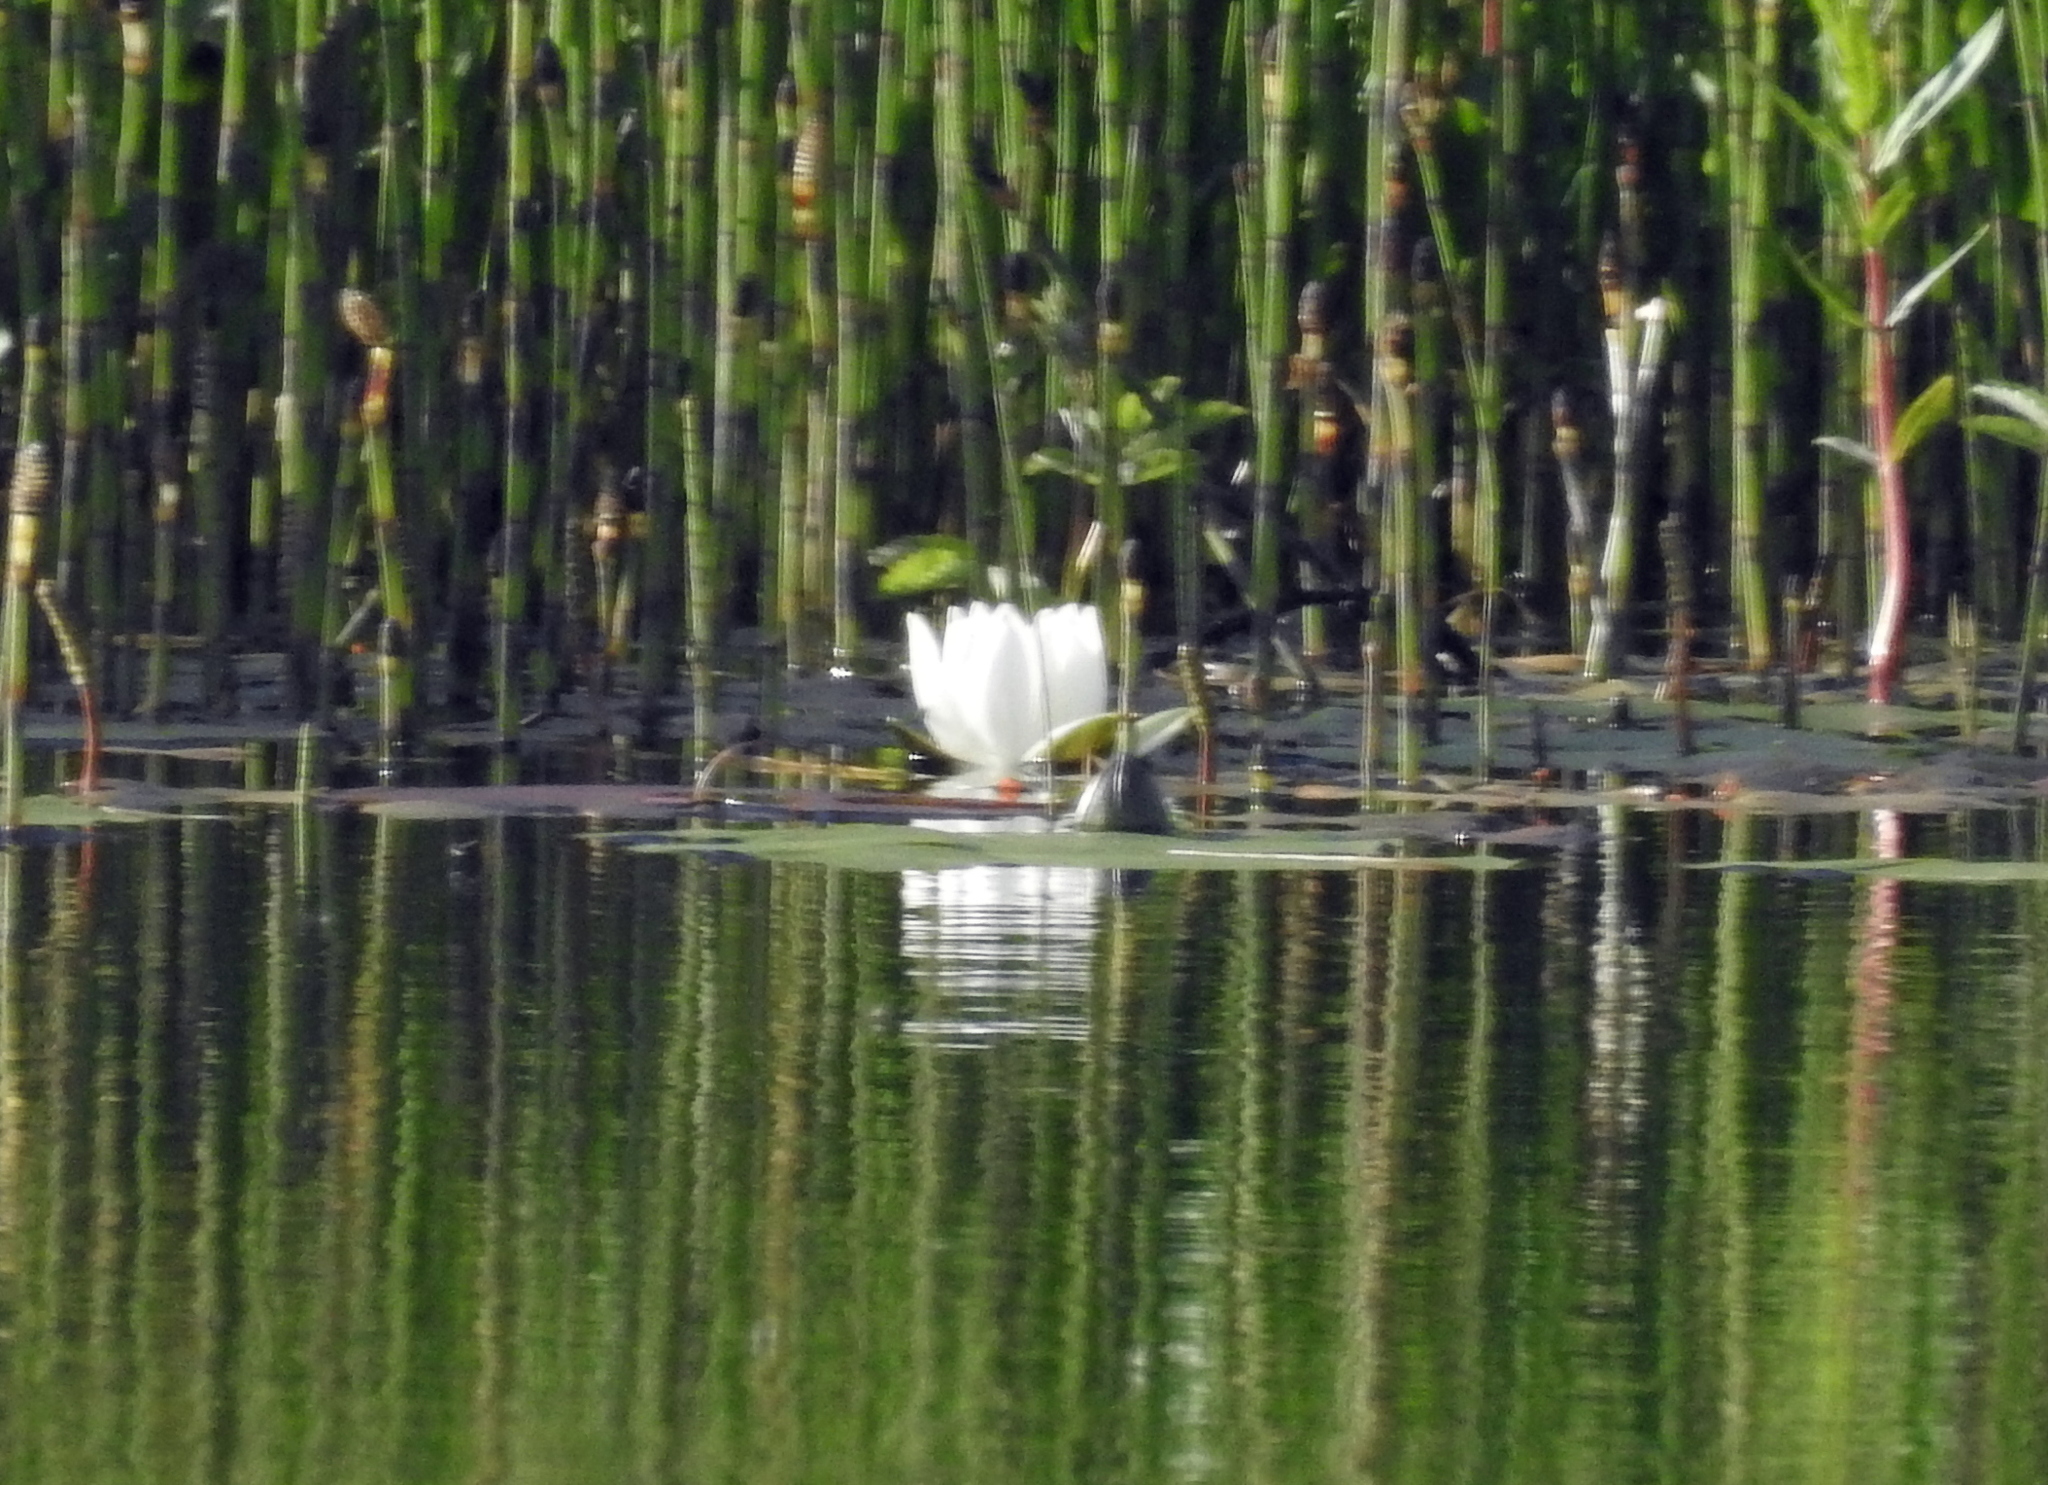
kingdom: Plantae
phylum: Tracheophyta
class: Magnoliopsida
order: Nymphaeales
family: Nymphaeaceae
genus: Nymphaea
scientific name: Nymphaea alba
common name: White water-lily
